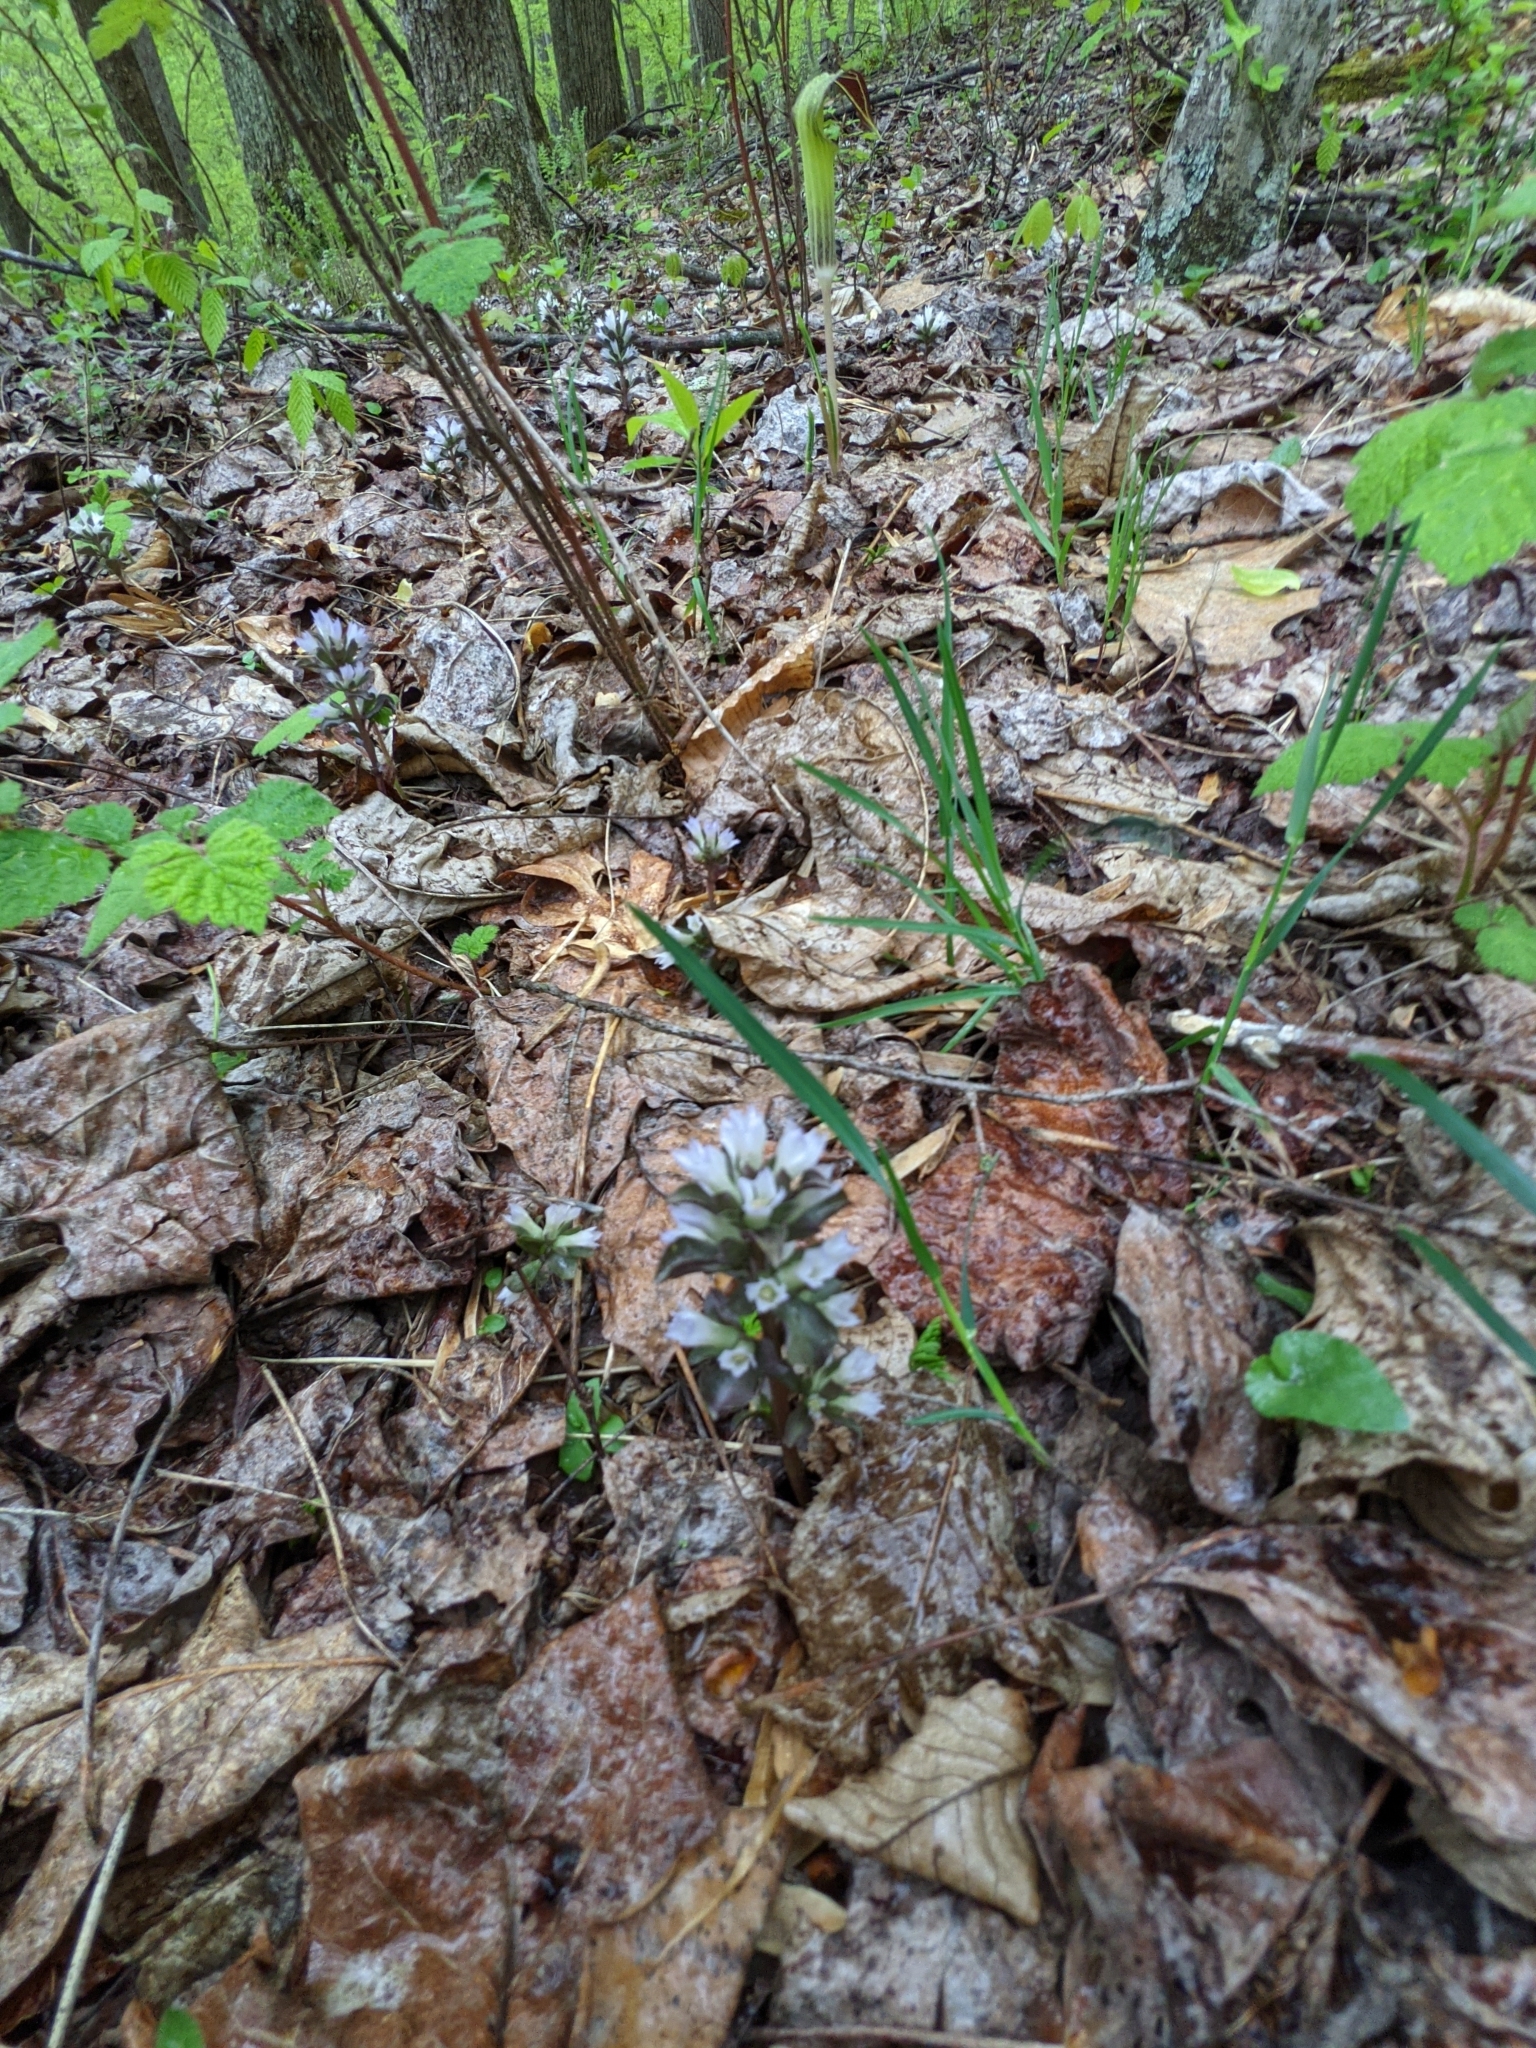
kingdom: Plantae
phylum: Tracheophyta
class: Magnoliopsida
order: Gentianales
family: Gentianaceae
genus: Obolaria
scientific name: Obolaria virginica
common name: Pennywort
